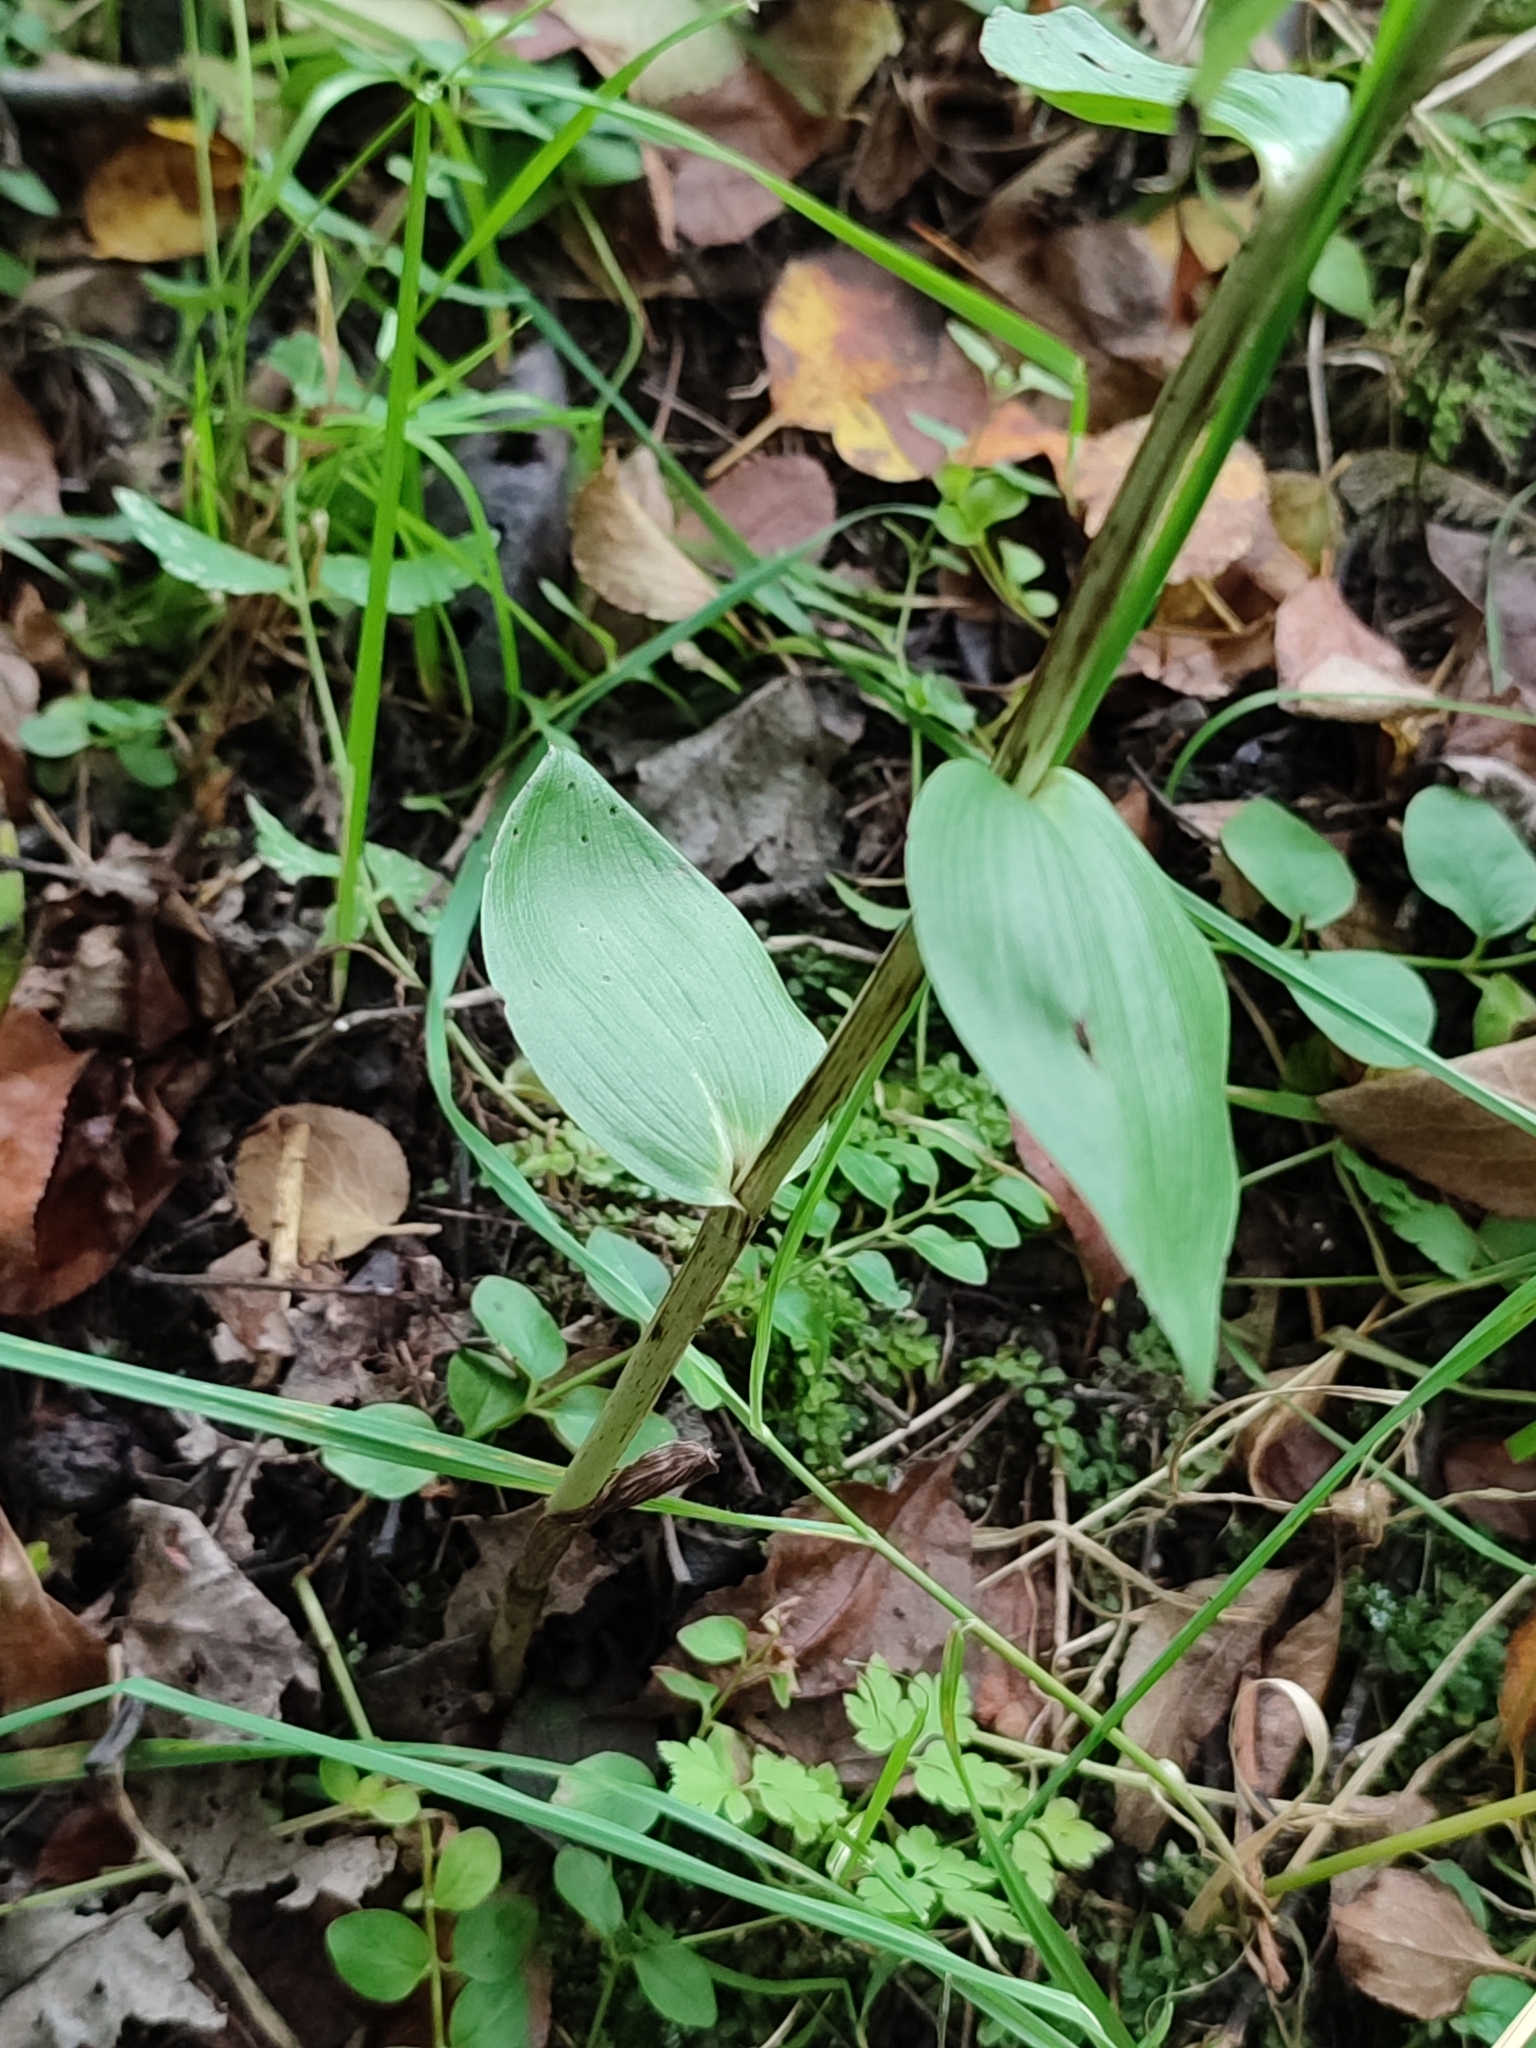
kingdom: Plantae
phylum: Tracheophyta
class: Liliopsida
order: Asparagales
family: Orchidaceae
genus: Cephalanthera
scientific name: Cephalanthera damasonium
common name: White helleborine
